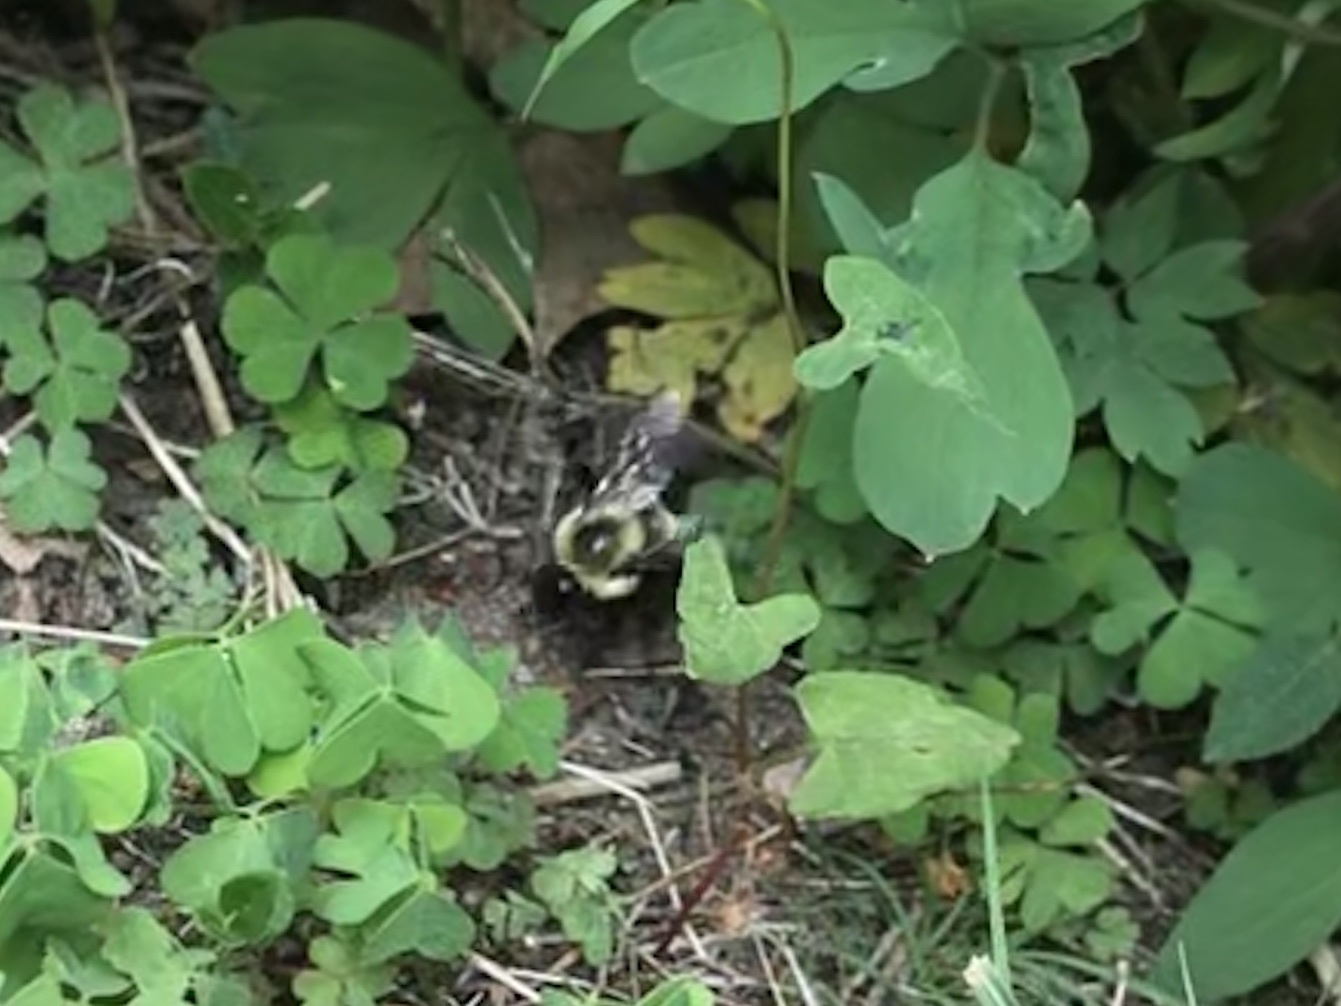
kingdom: Animalia
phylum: Arthropoda
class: Insecta
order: Hymenoptera
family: Apidae
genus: Bombus
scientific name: Bombus impatiens
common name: Common eastern bumble bee
